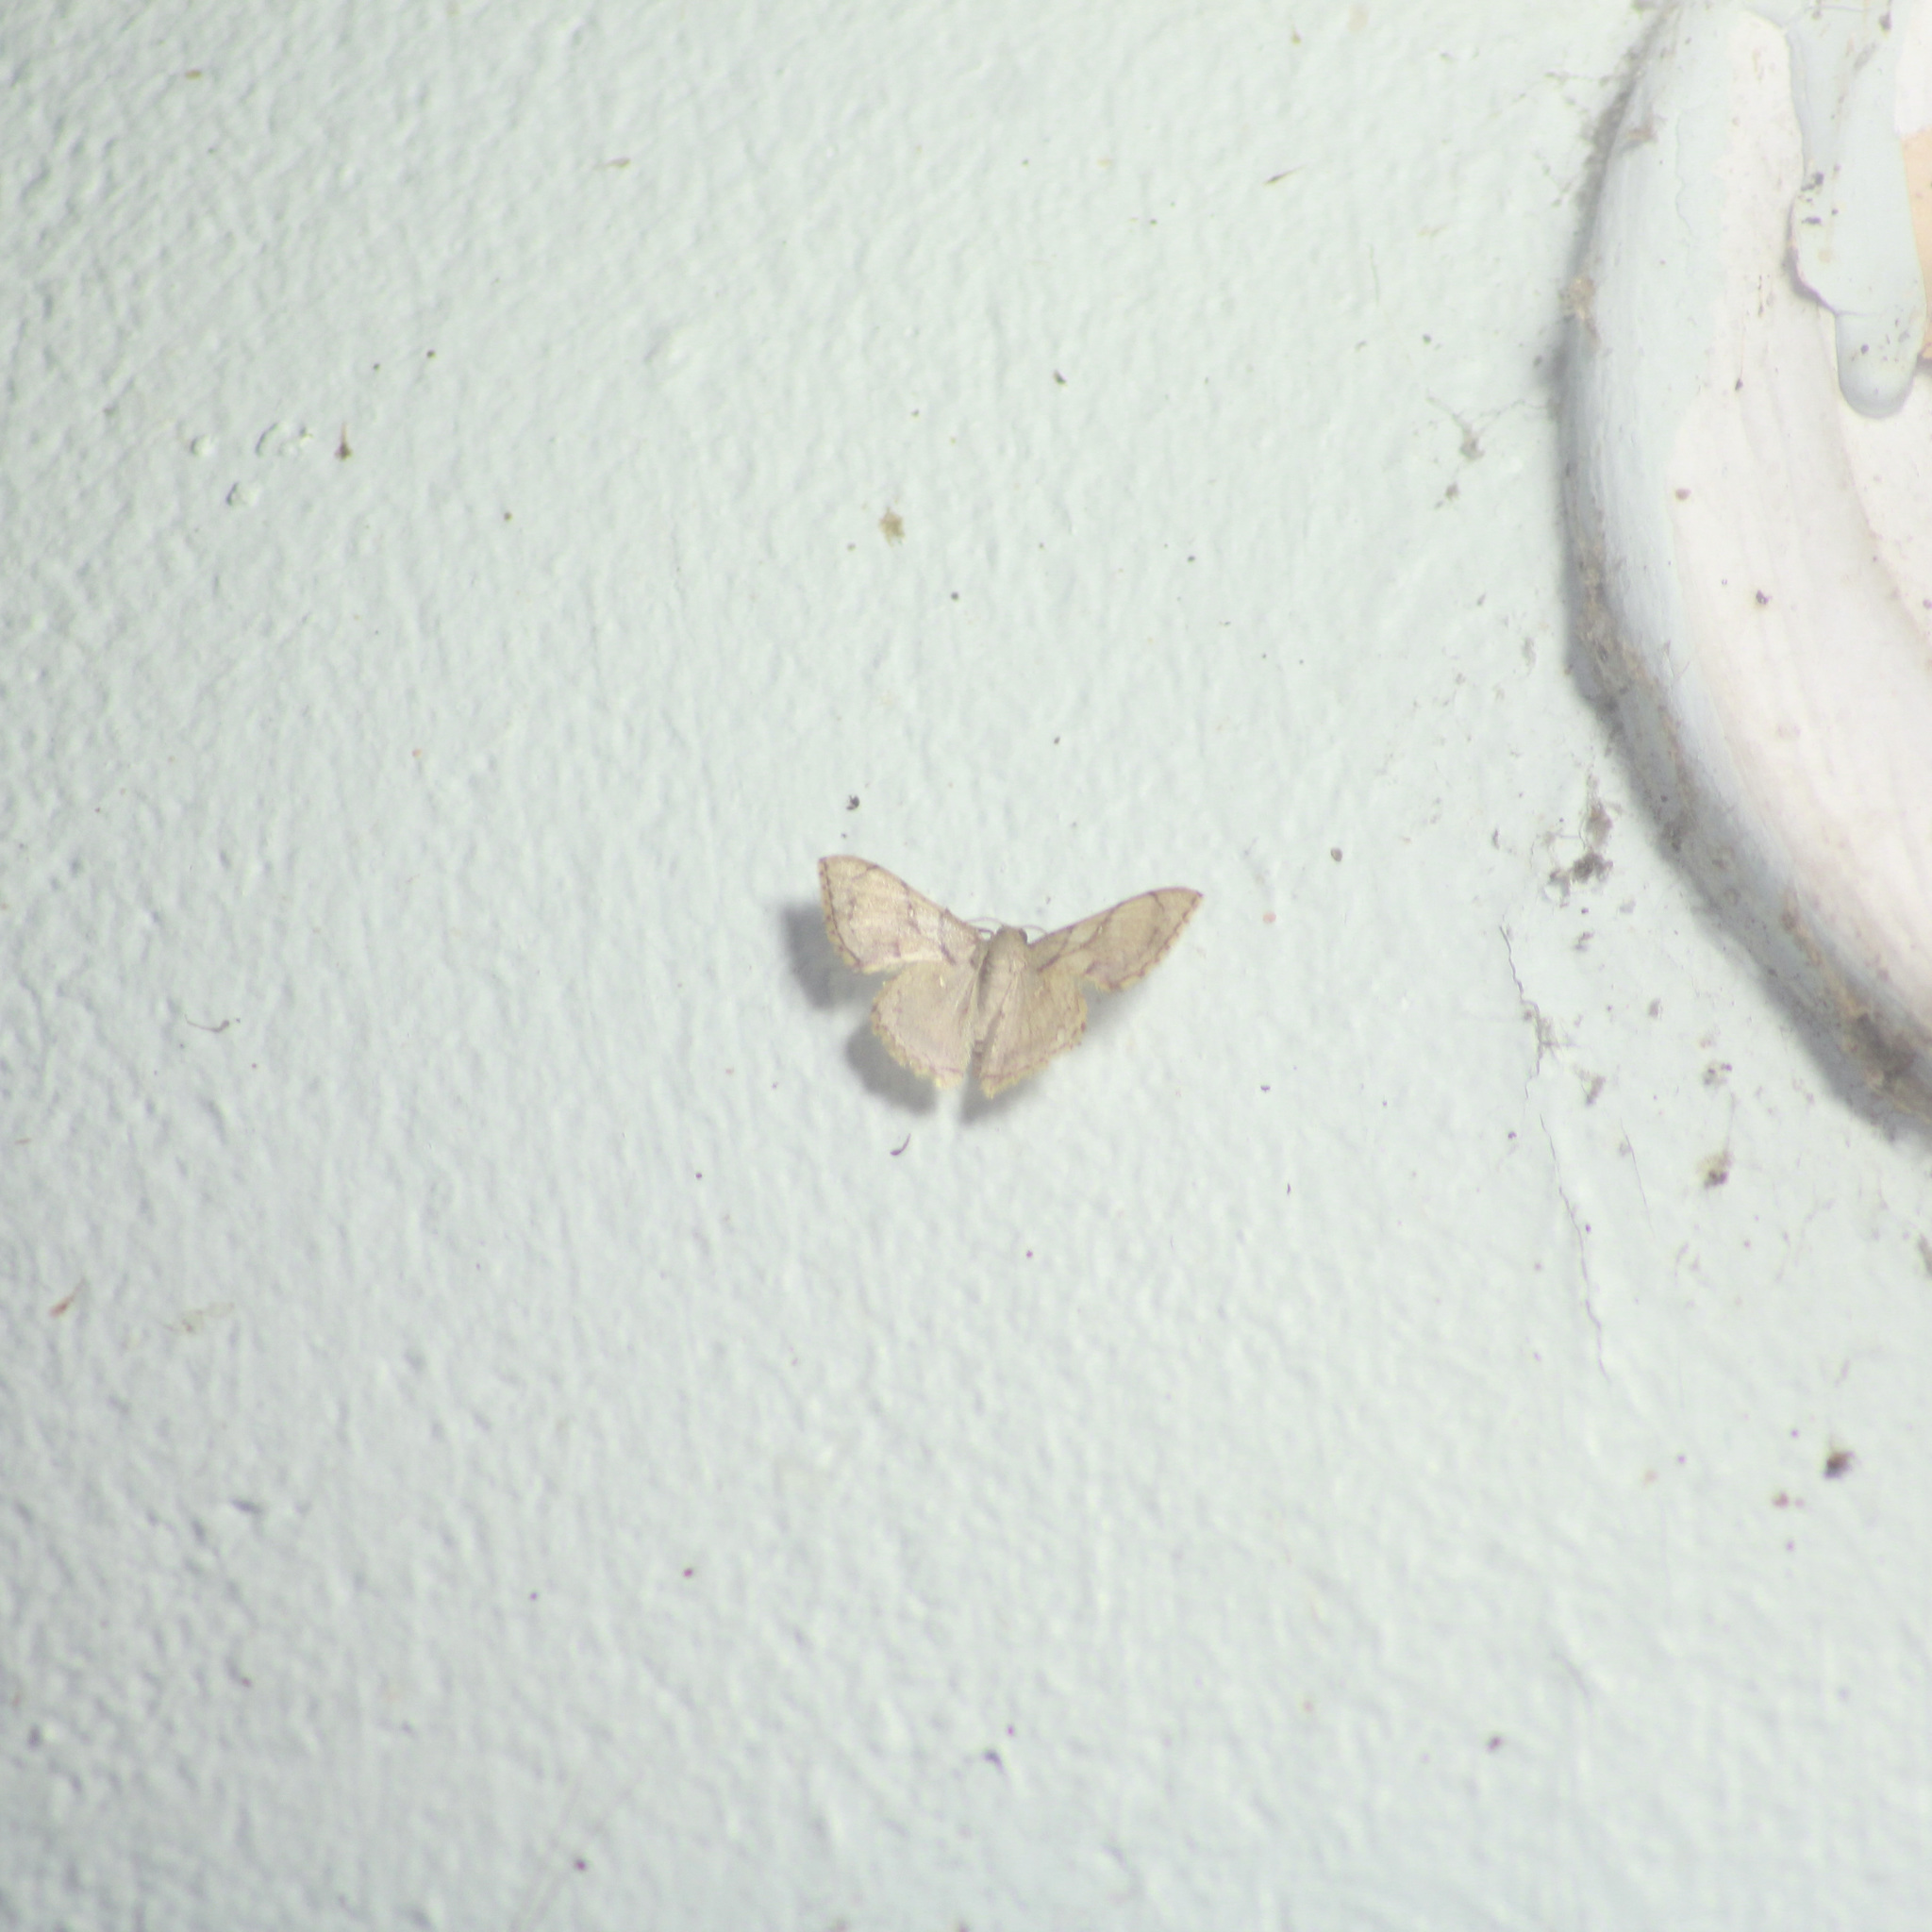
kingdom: Animalia
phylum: Arthropoda
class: Insecta
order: Lepidoptera
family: Geometridae
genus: Hemipterodes
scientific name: Hemipterodes subnigrata
